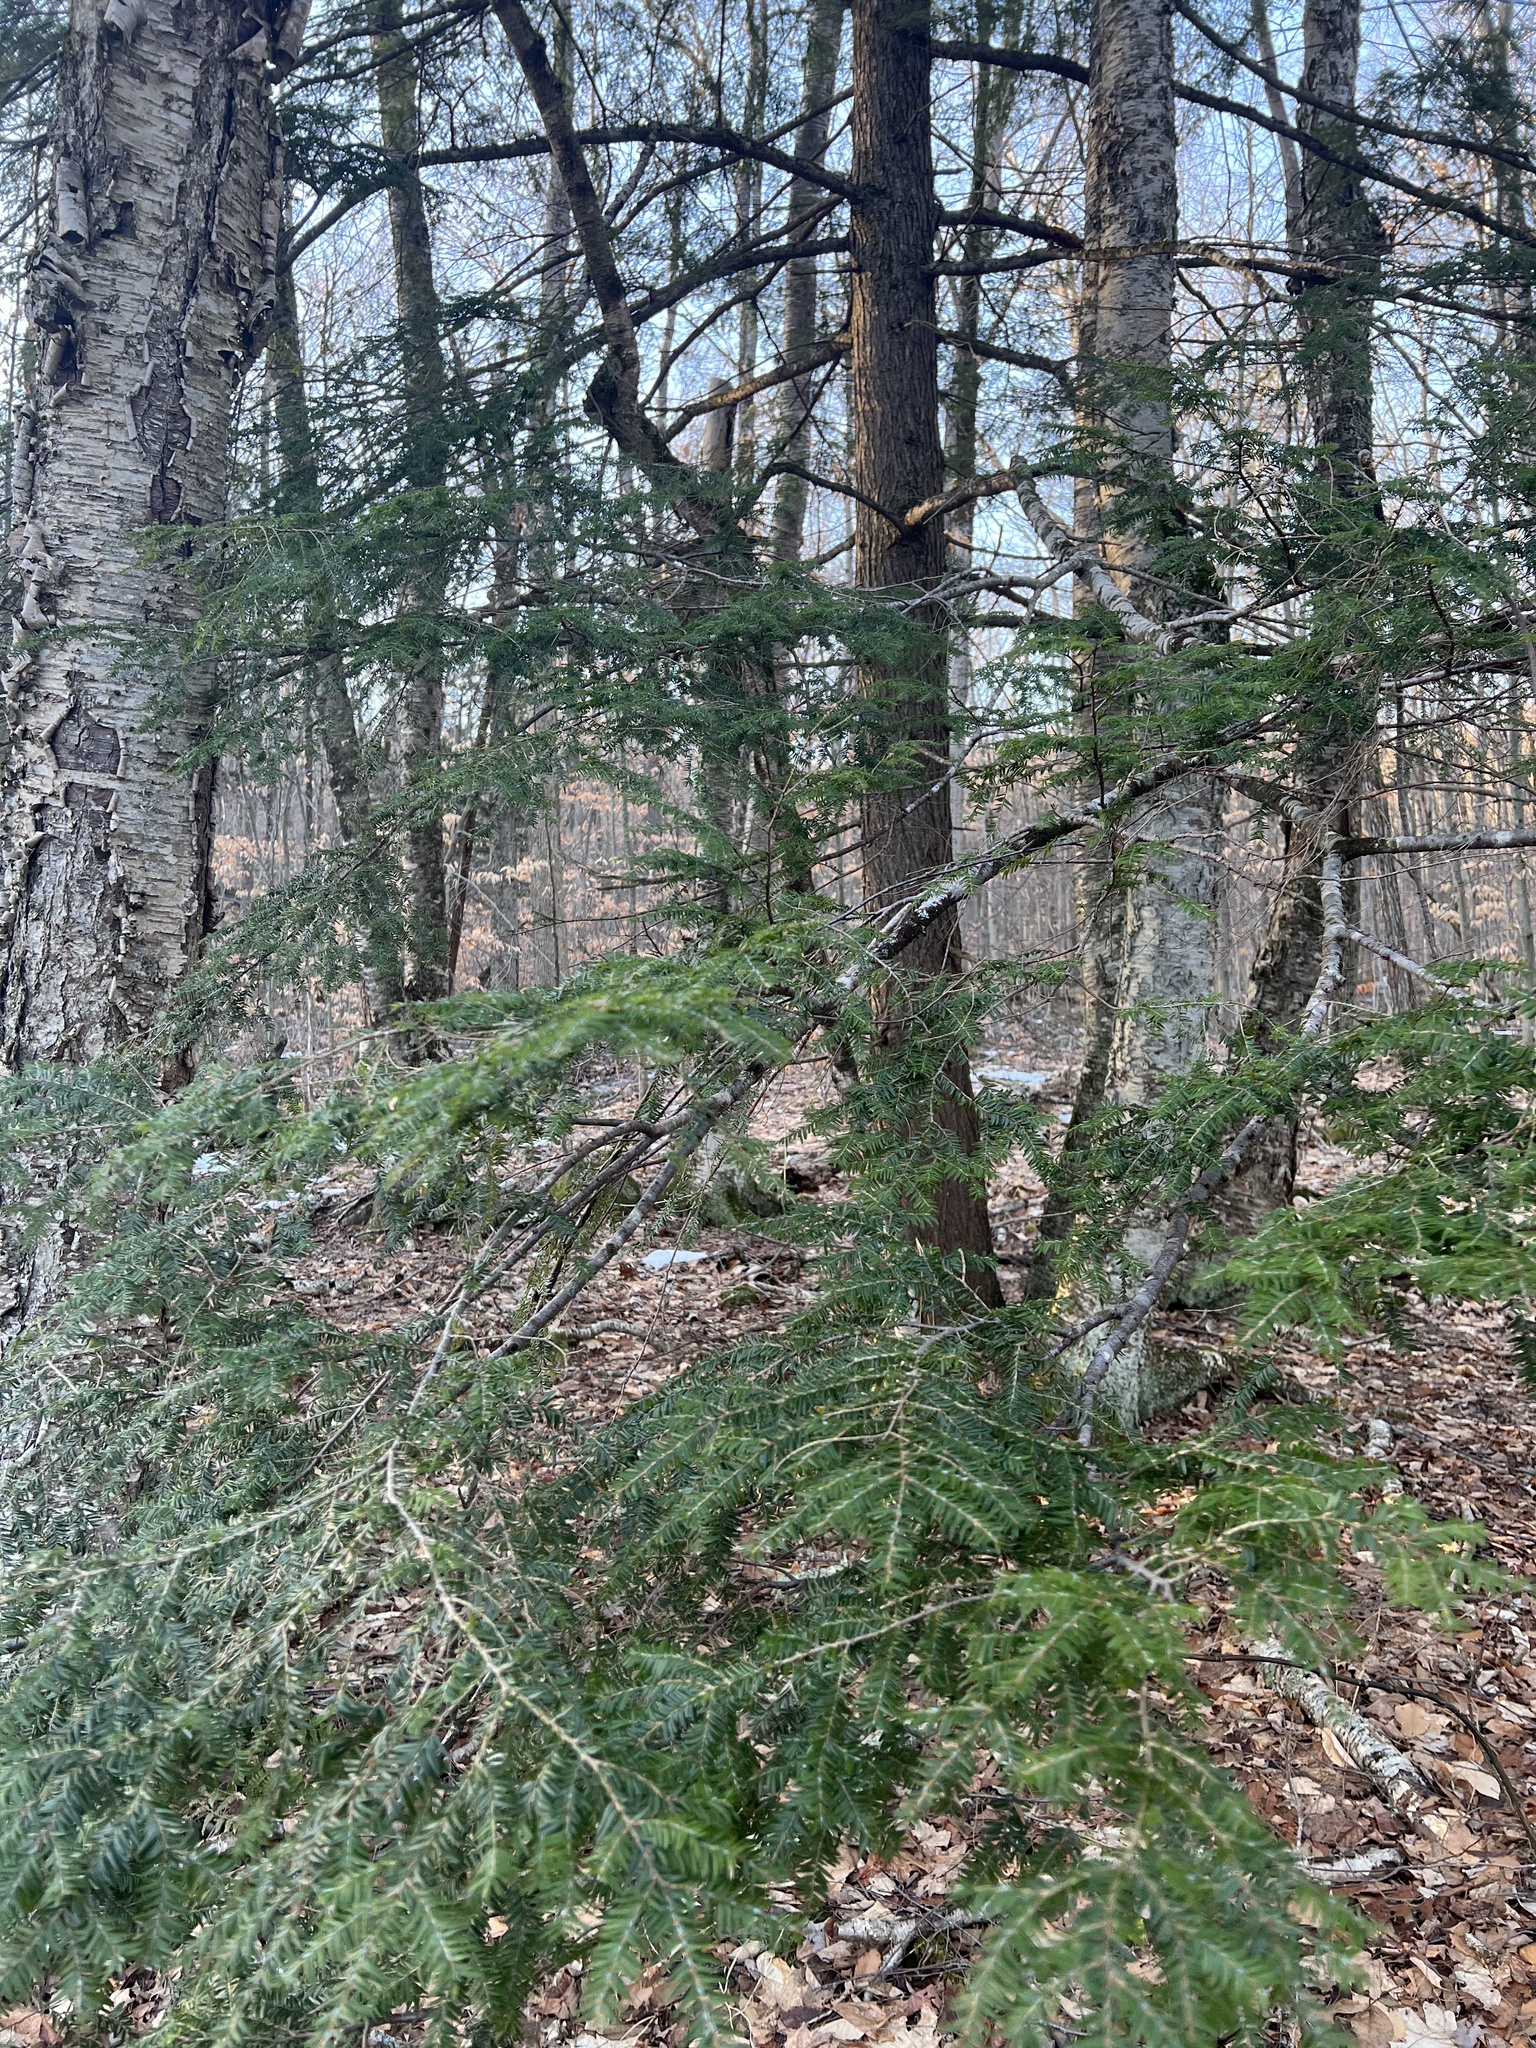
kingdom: Plantae
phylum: Tracheophyta
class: Pinopsida
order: Pinales
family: Pinaceae
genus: Tsuga
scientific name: Tsuga canadensis
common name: Eastern hemlock
